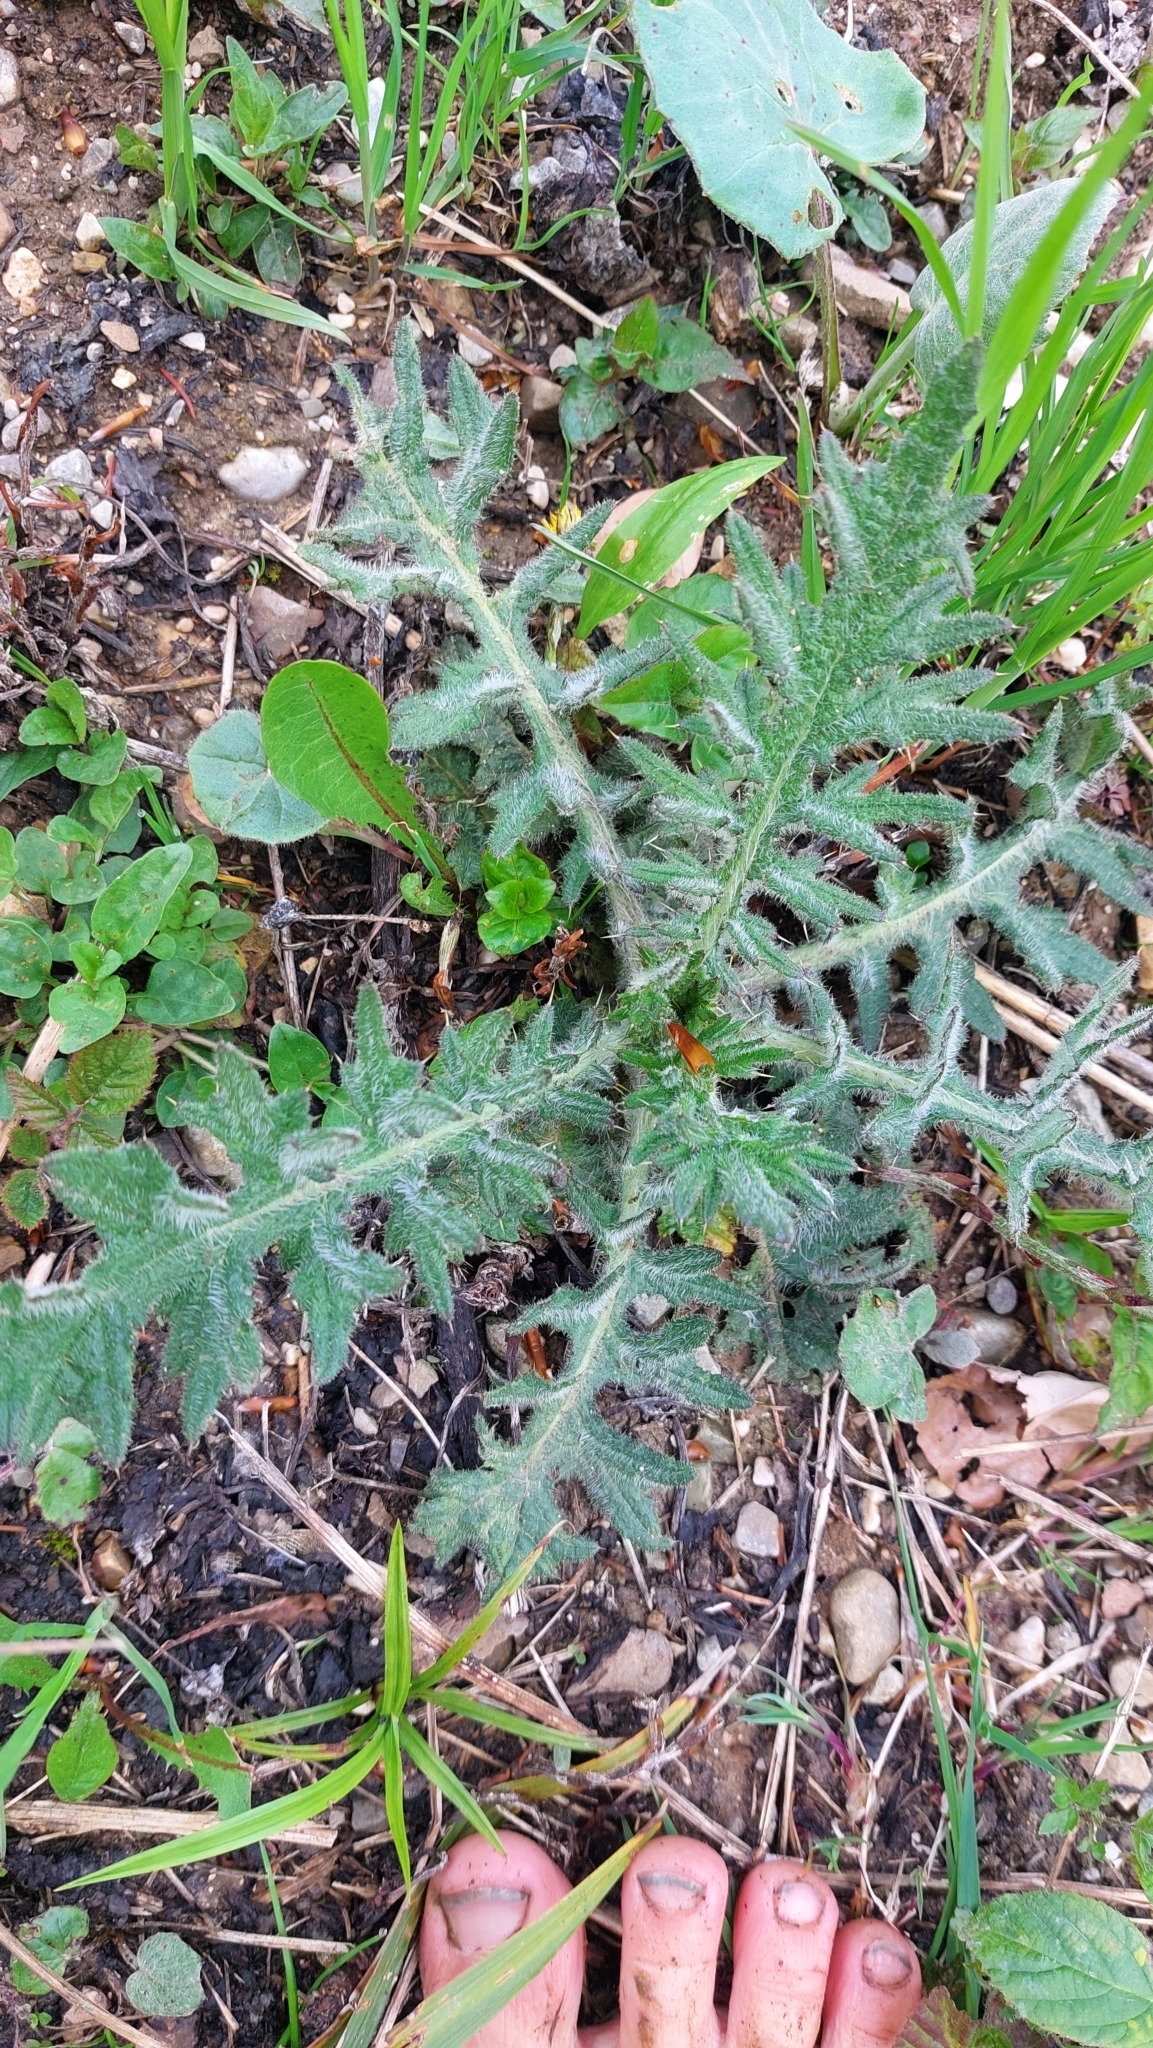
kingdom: Plantae
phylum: Tracheophyta
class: Magnoliopsida
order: Asterales
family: Asteraceae
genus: Cirsium
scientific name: Cirsium vulgare
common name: Bull thistle
